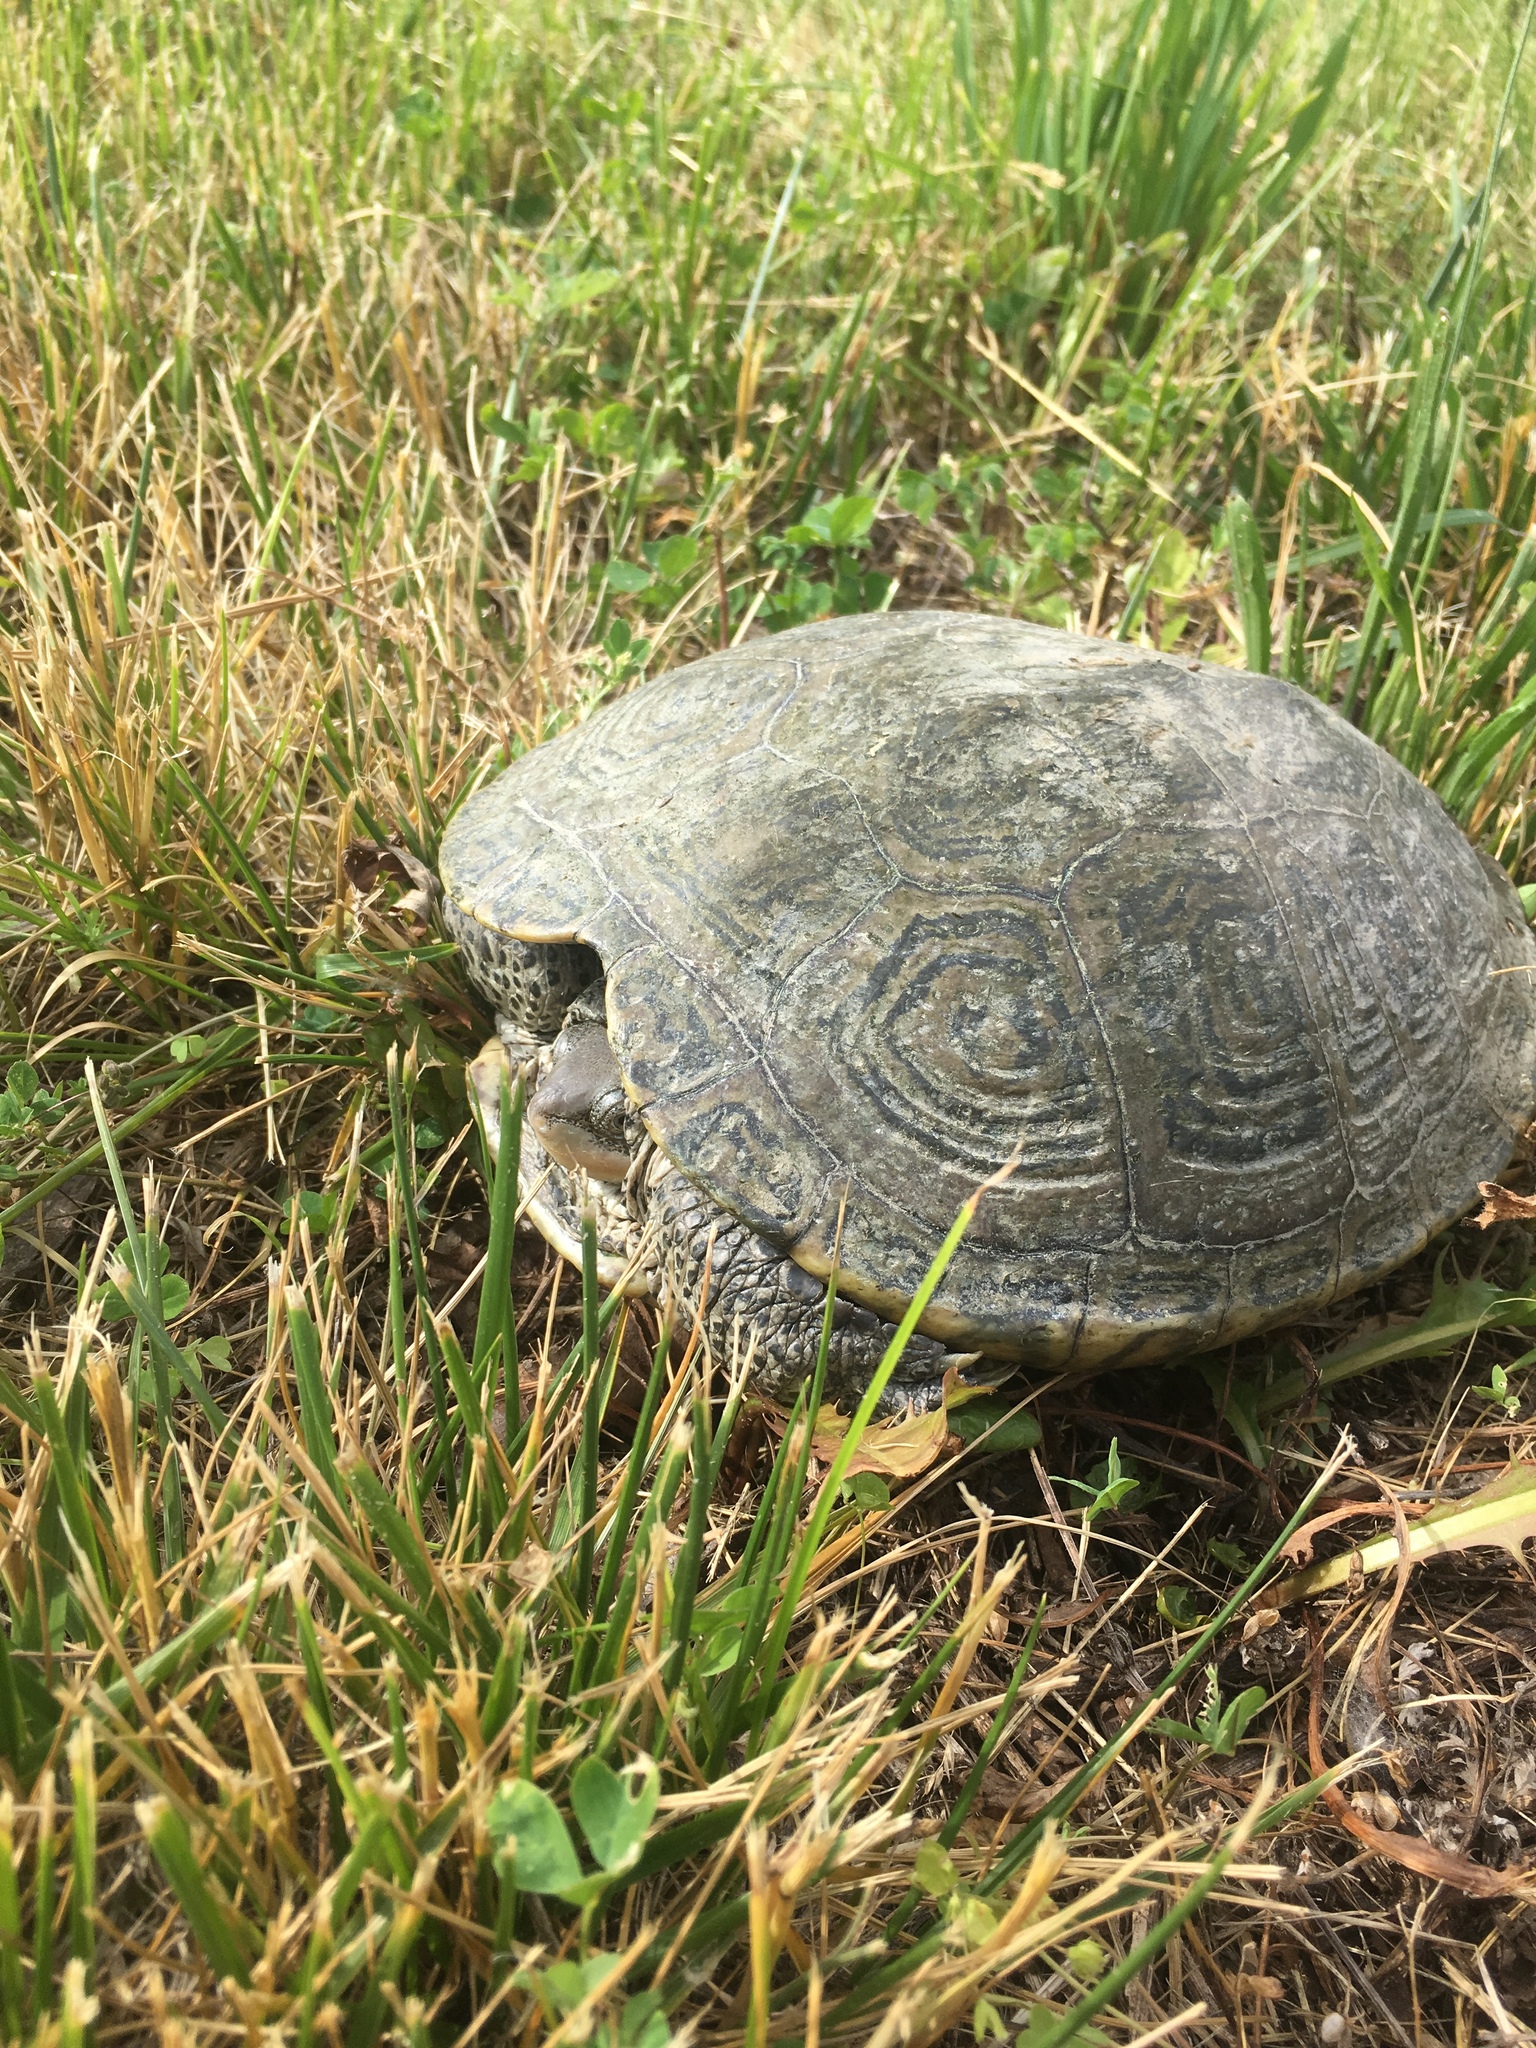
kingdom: Animalia
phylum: Chordata
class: Testudines
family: Emydidae
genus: Malaclemys
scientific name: Malaclemys terrapin
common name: Diamondback terrapin
